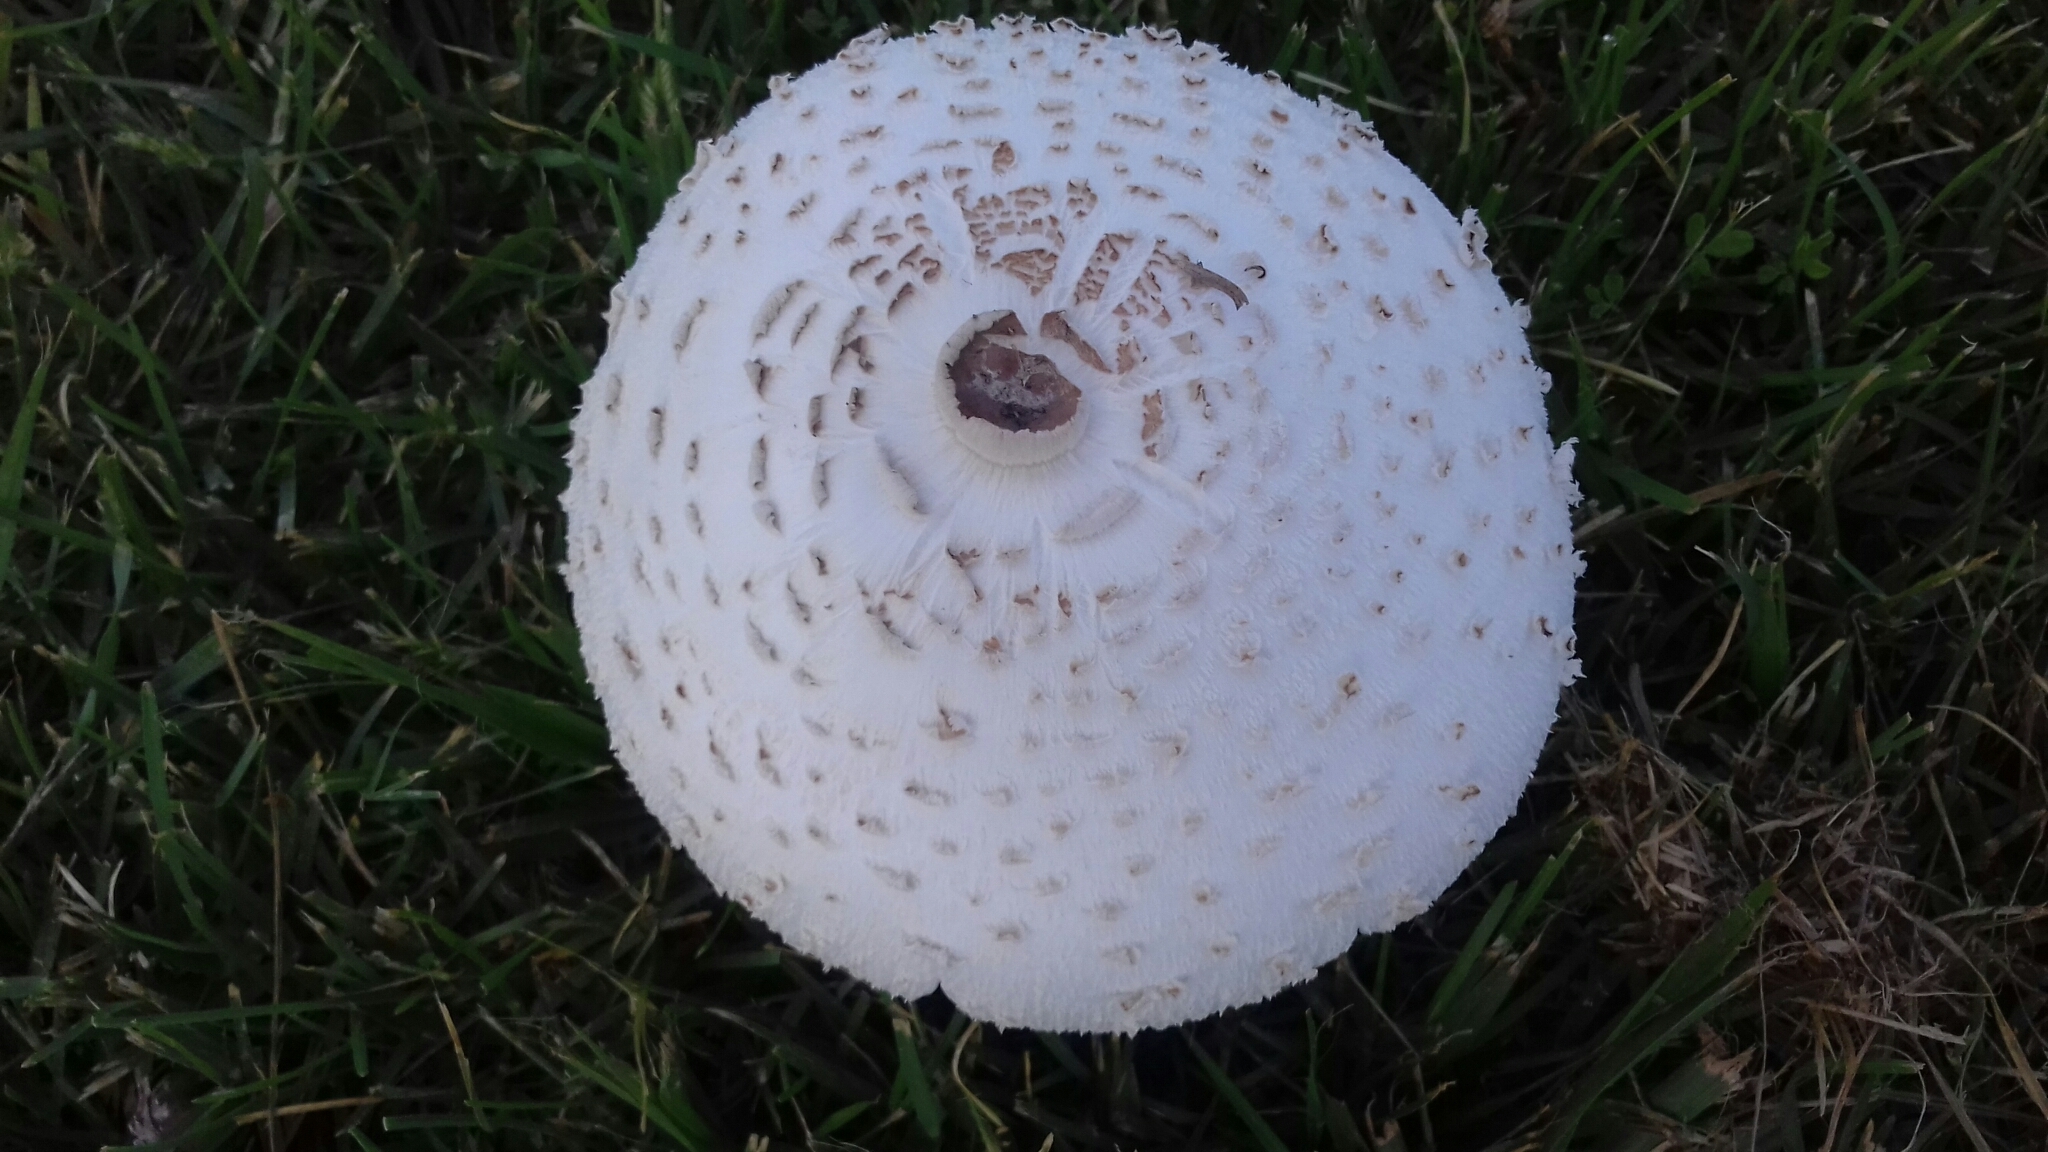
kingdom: Fungi
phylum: Basidiomycota
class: Agaricomycetes
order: Agaricales
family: Agaricaceae
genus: Chlorophyllum
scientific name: Chlorophyllum molybdites
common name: False parasol
